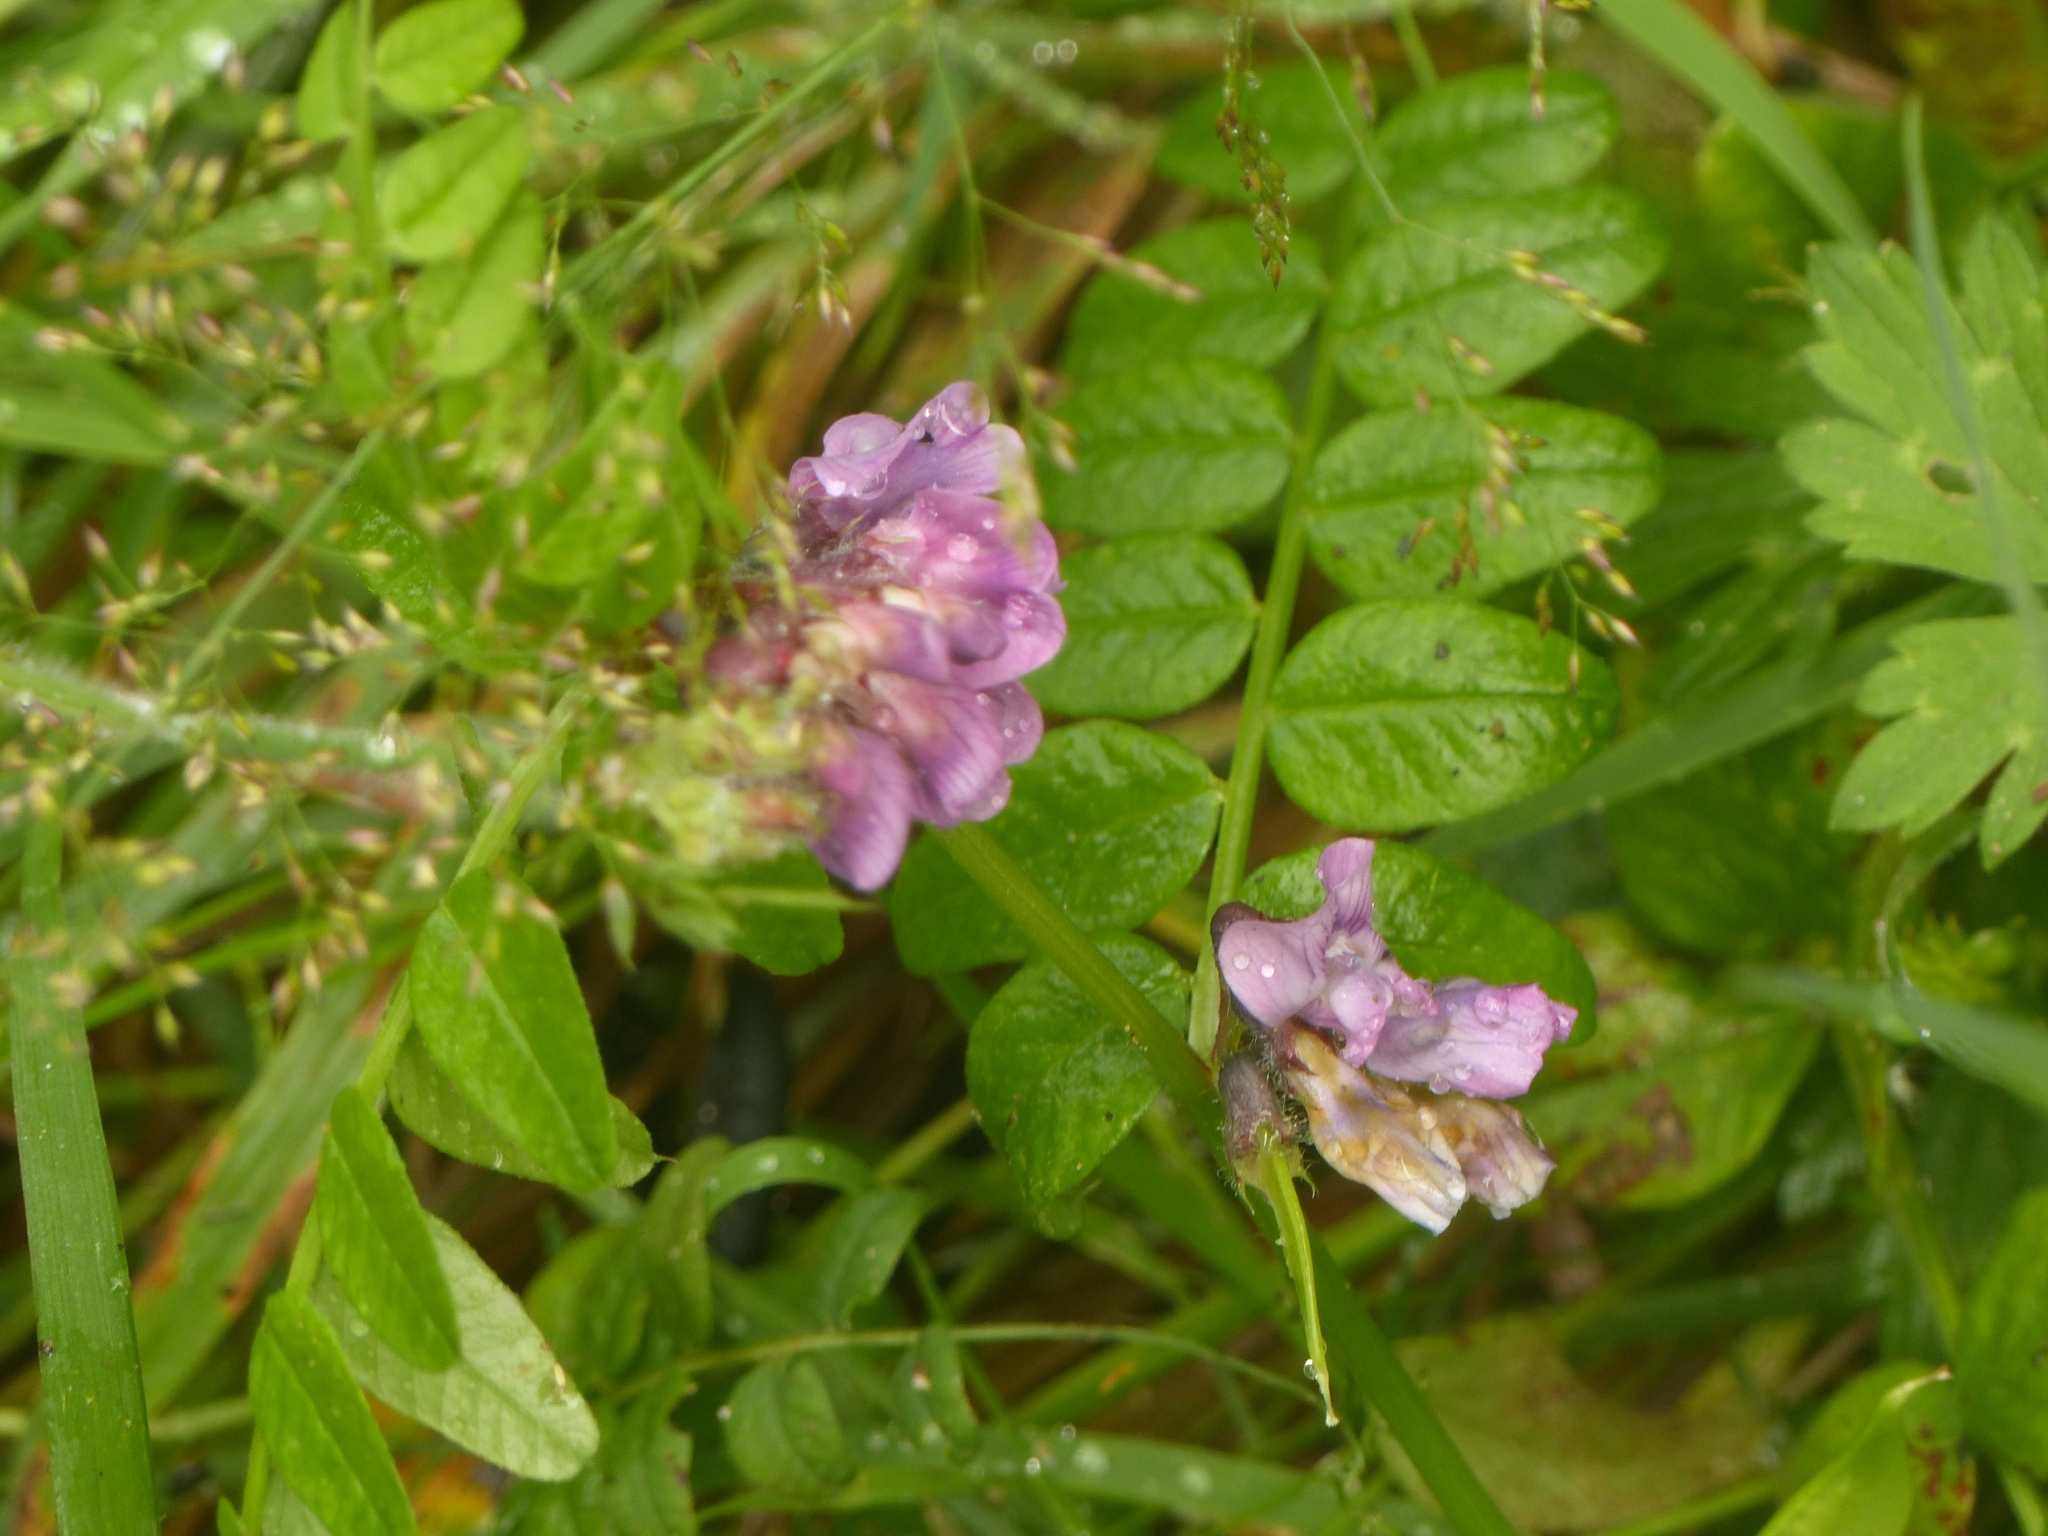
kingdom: Plantae
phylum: Tracheophyta
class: Magnoliopsida
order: Fabales
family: Fabaceae
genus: Vicia
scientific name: Vicia sepium
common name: Bush vetch
